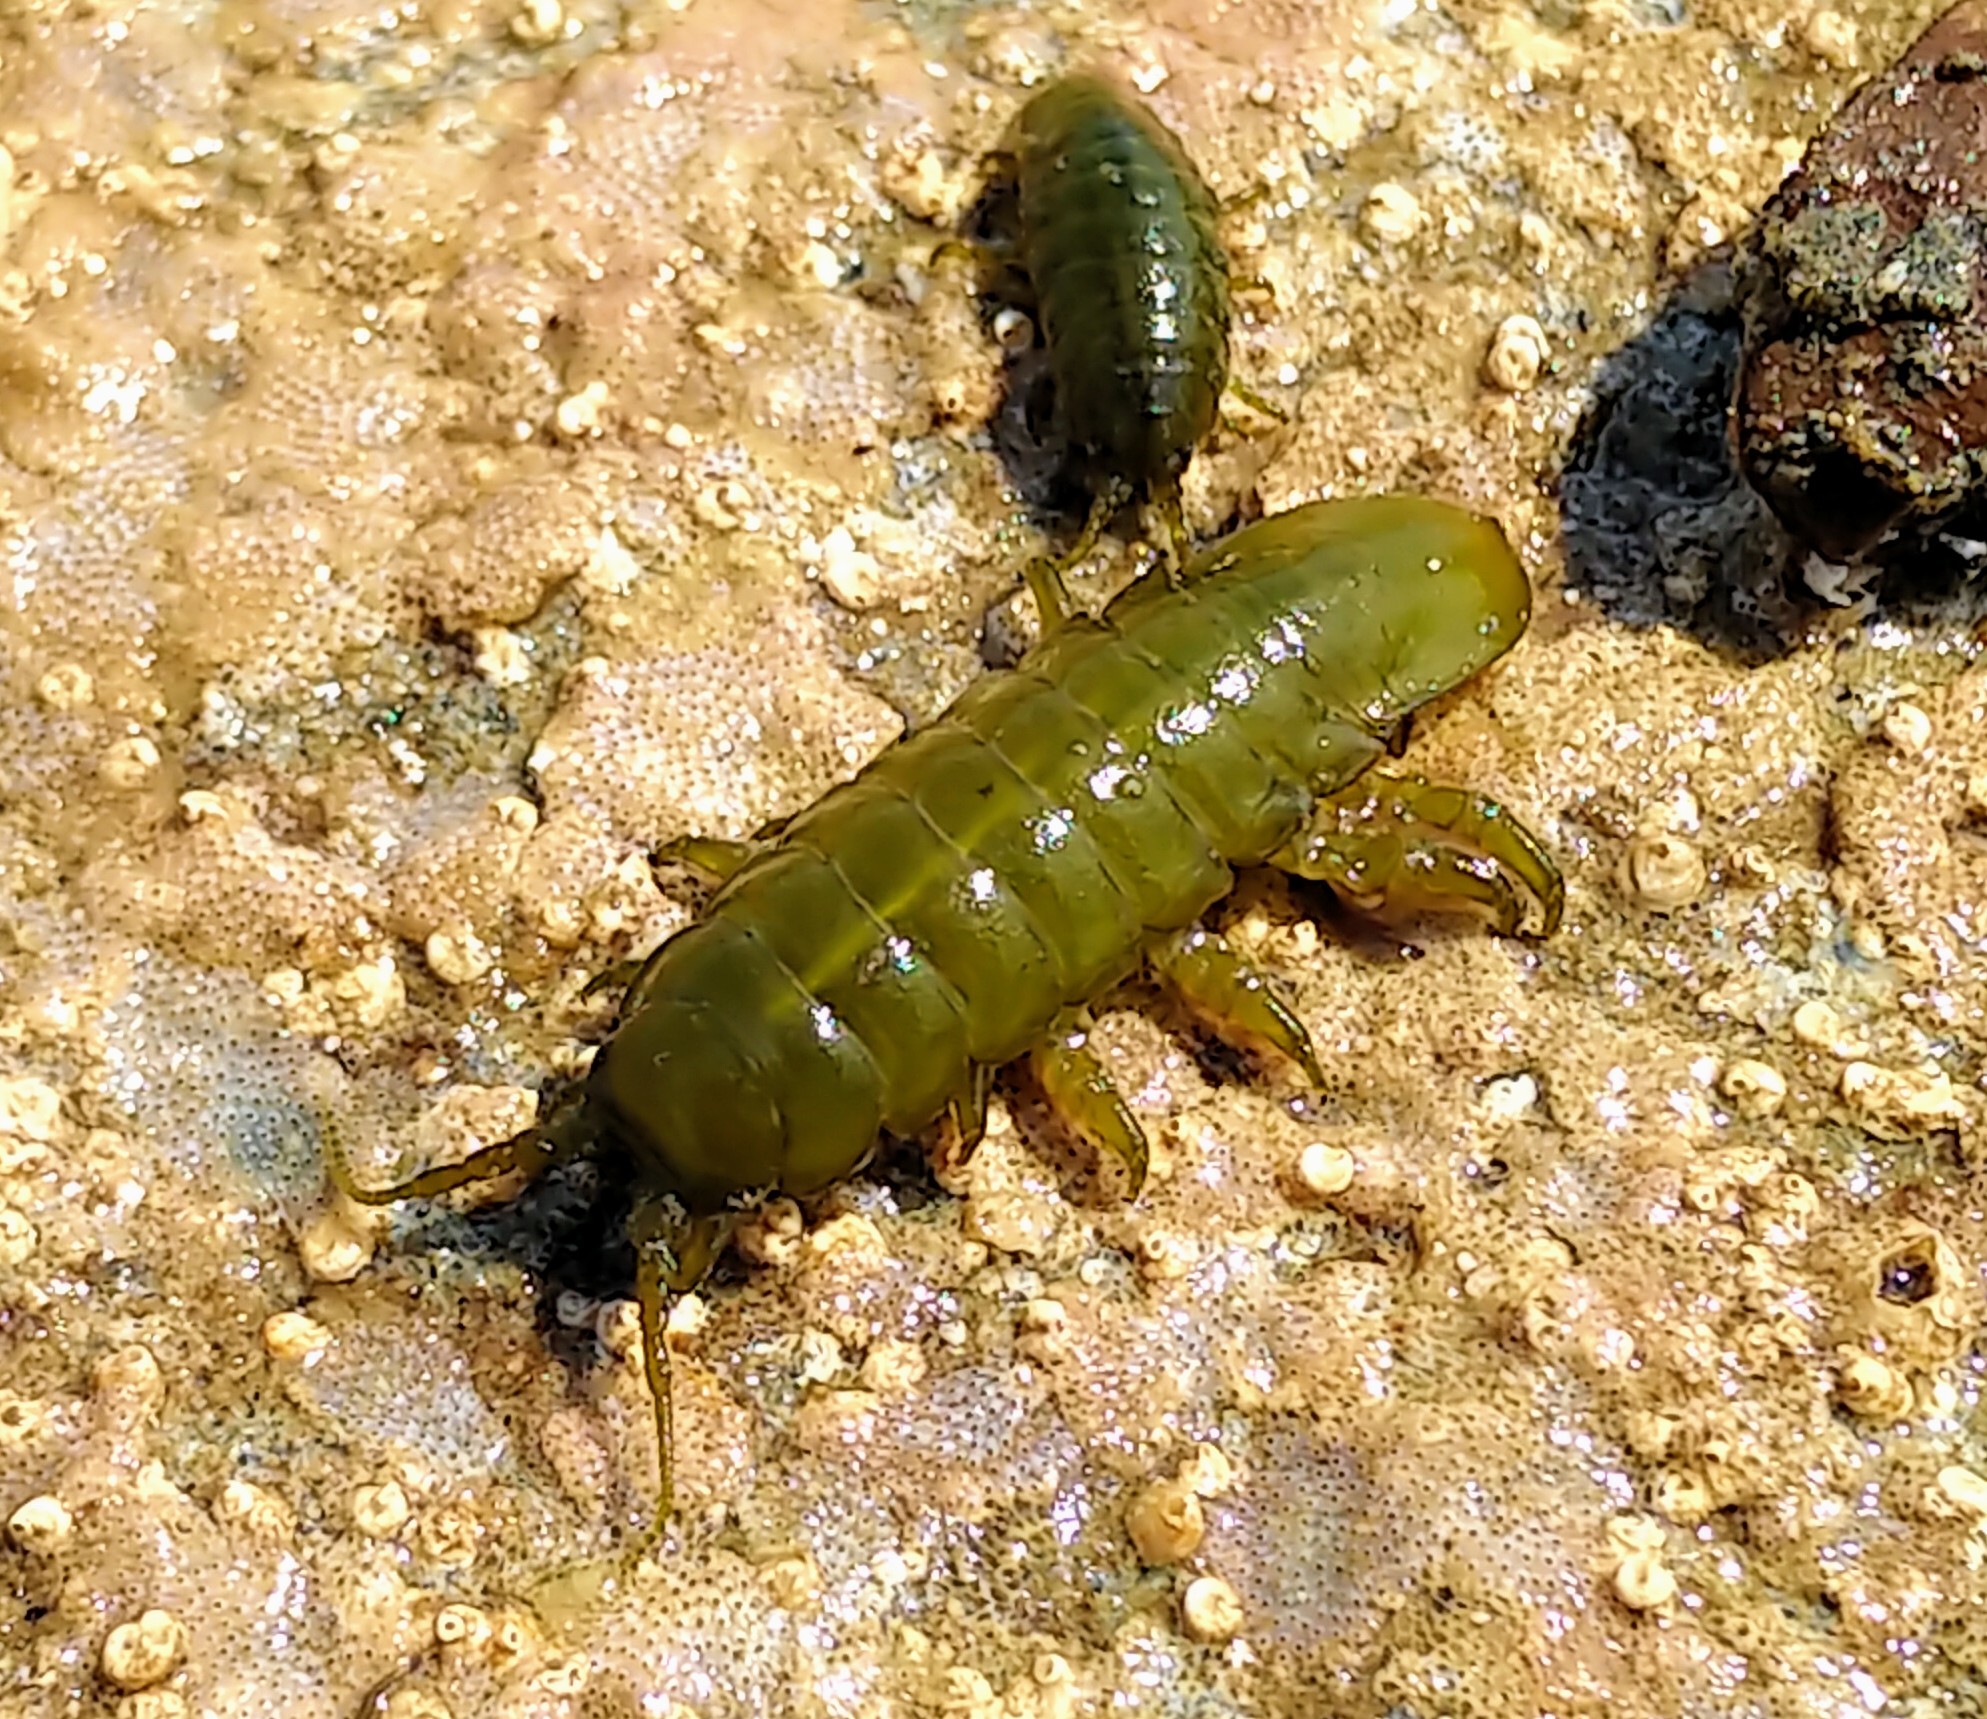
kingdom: Animalia
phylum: Arthropoda
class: Malacostraca
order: Isopoda
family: Idoteidae
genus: Pentidotea
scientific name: Pentidotea wosnesenskii
